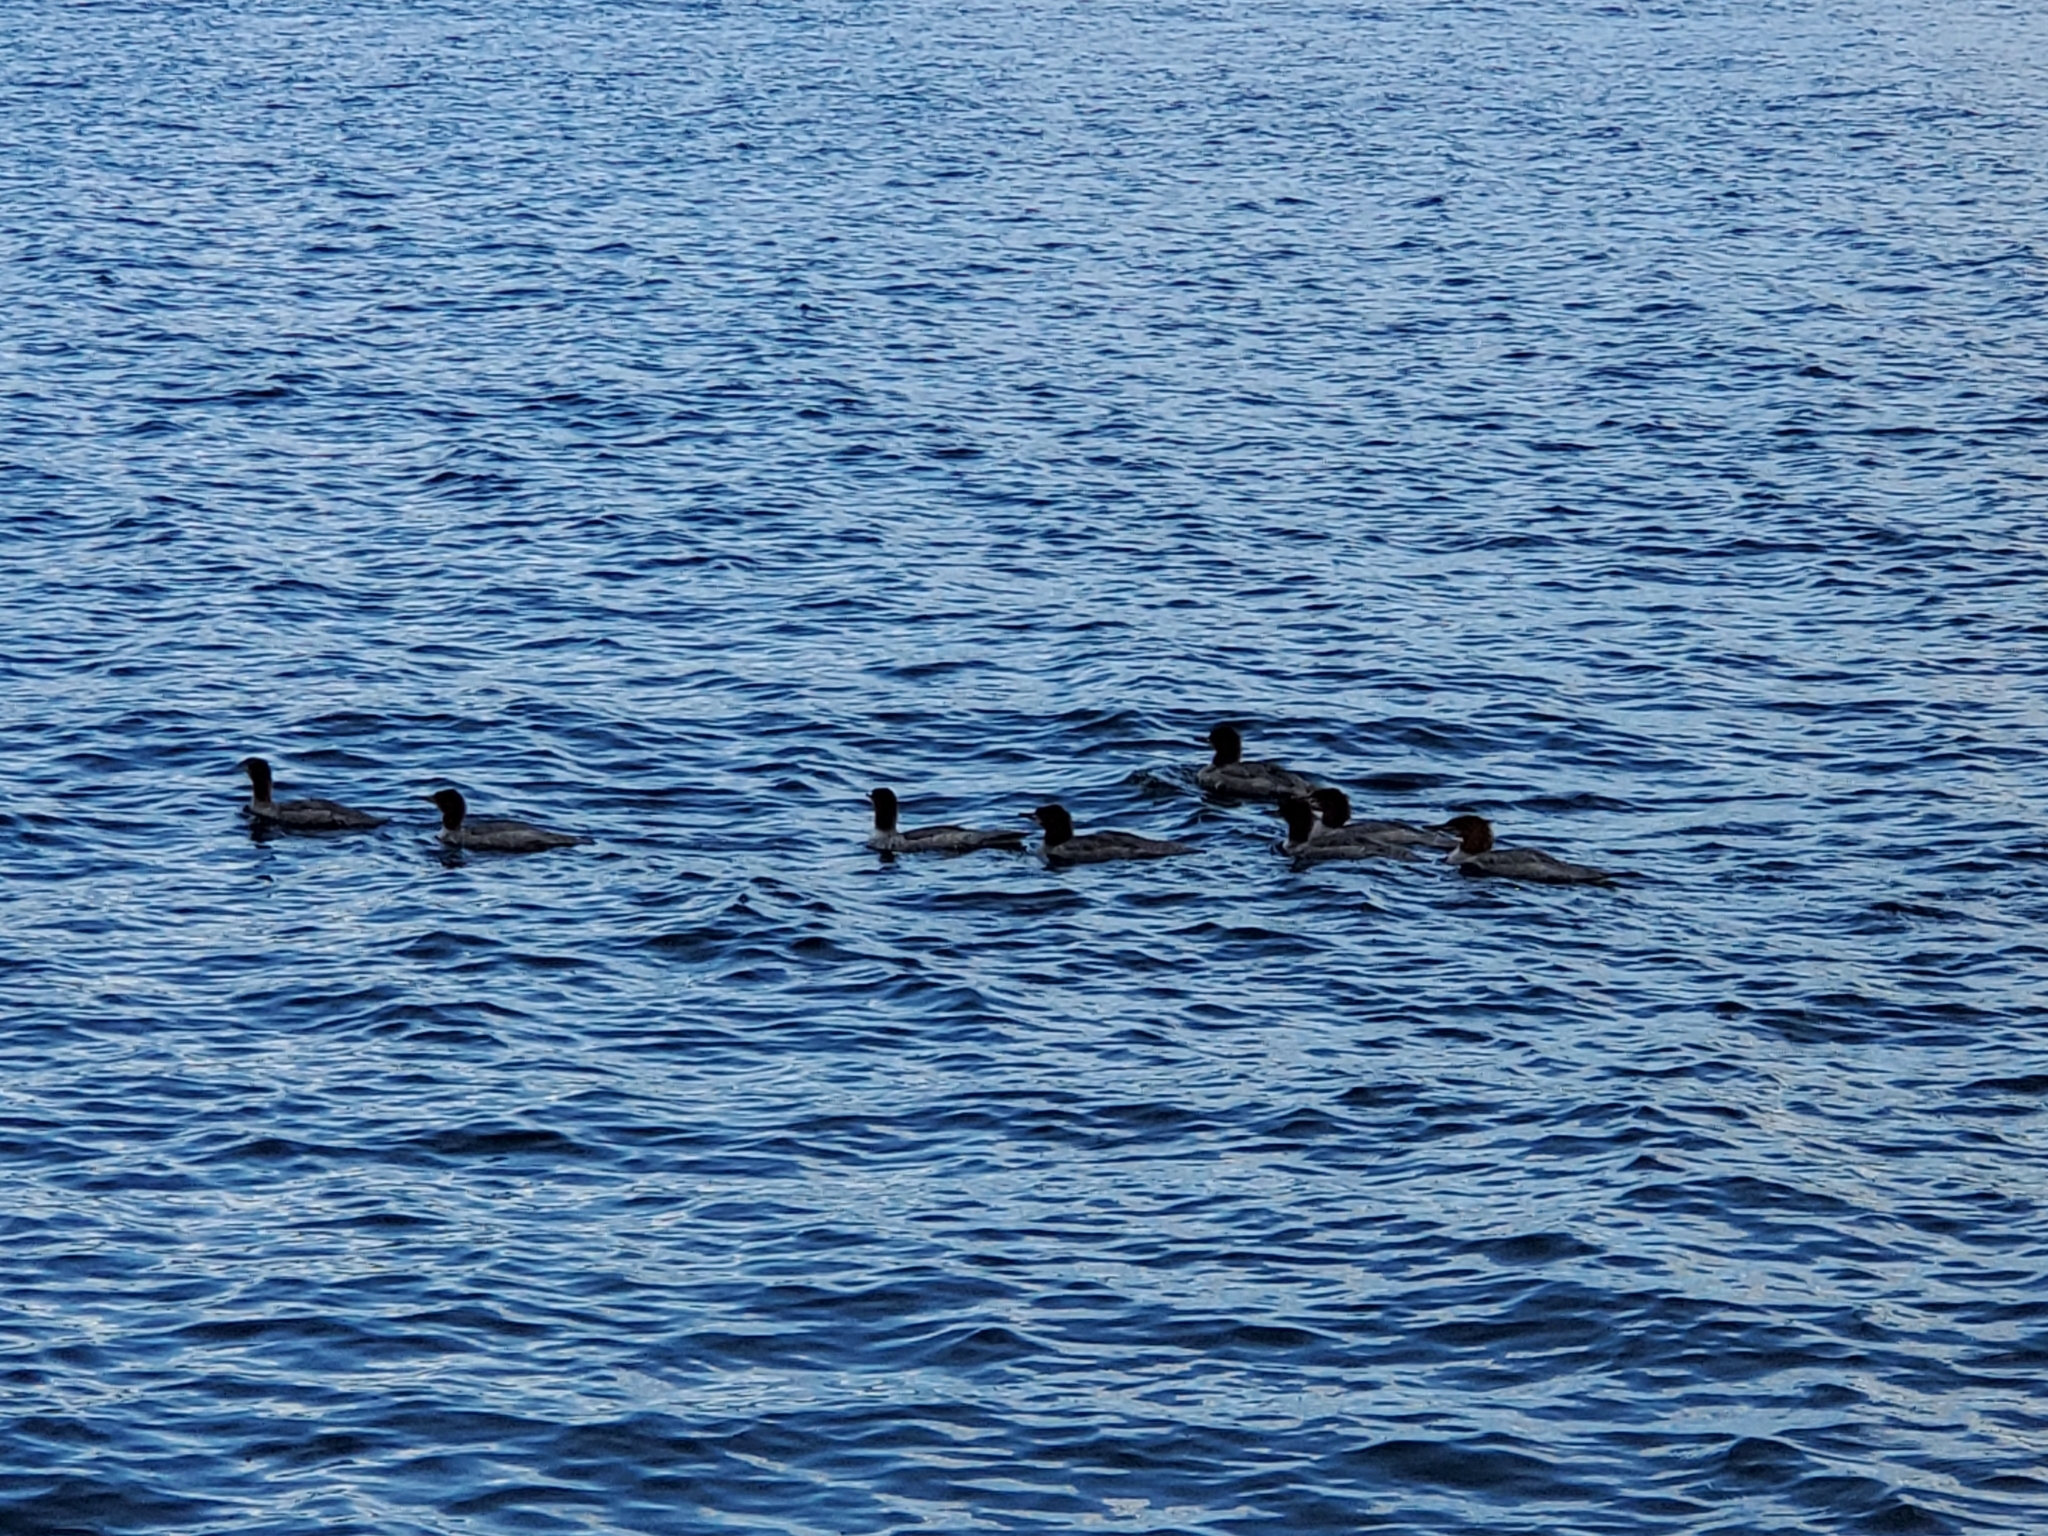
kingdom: Animalia
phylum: Chordata
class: Aves
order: Anseriformes
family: Anatidae
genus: Mergus
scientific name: Mergus merganser
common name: Common merganser
